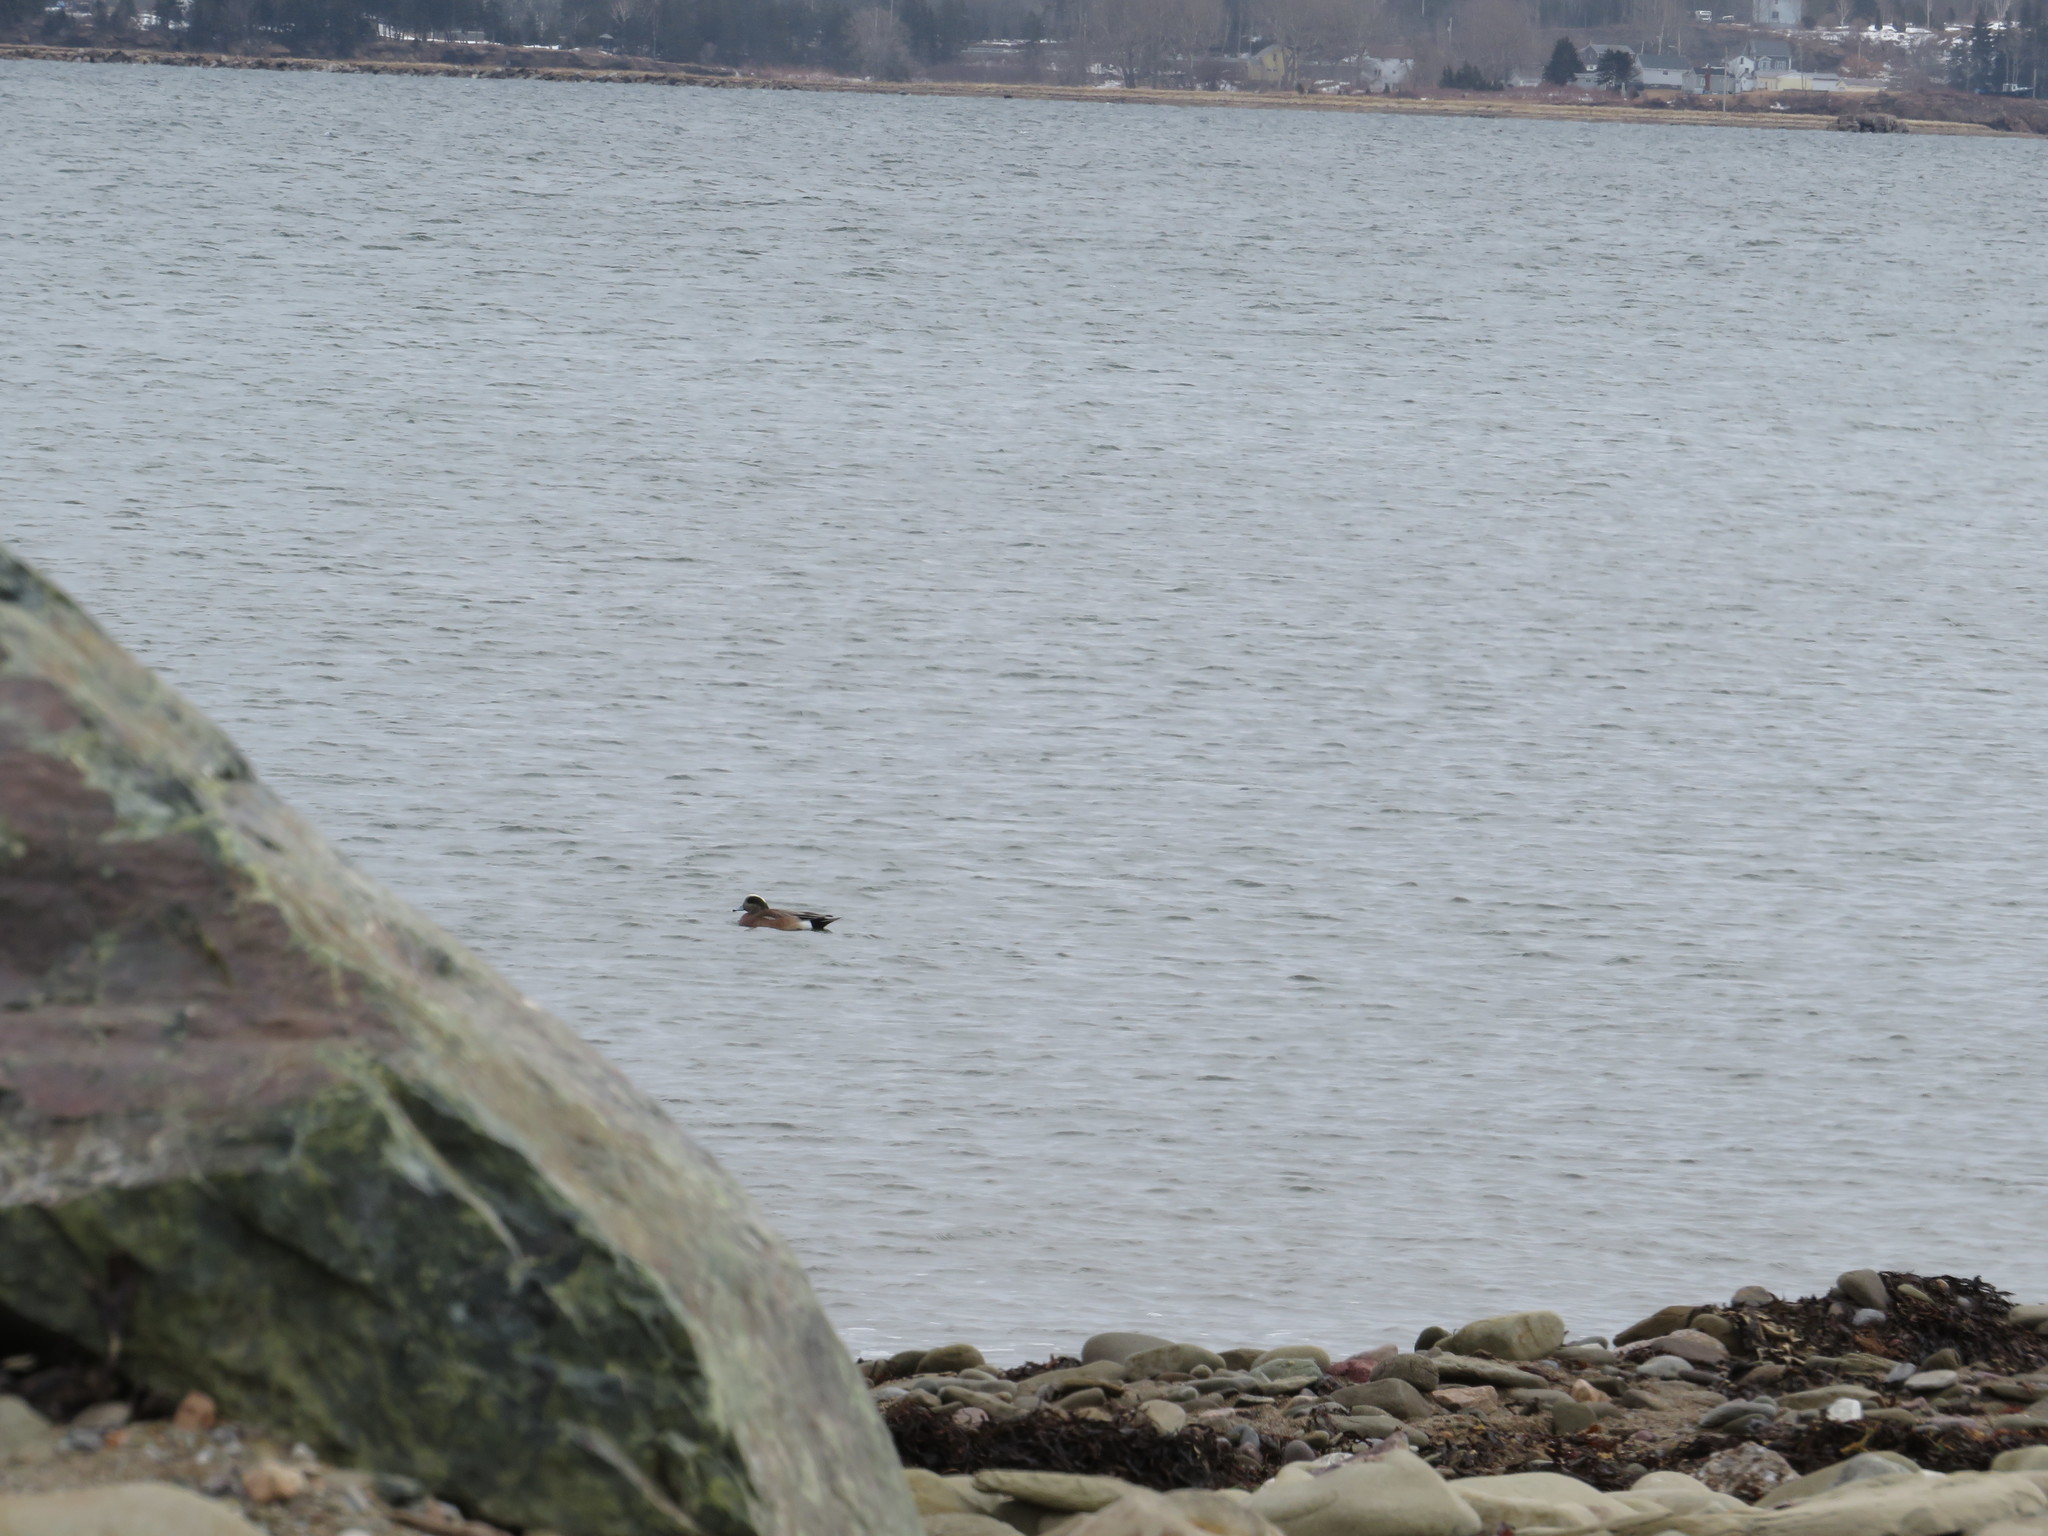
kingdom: Animalia
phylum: Chordata
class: Aves
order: Anseriformes
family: Anatidae
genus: Mareca
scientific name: Mareca americana
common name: American wigeon
